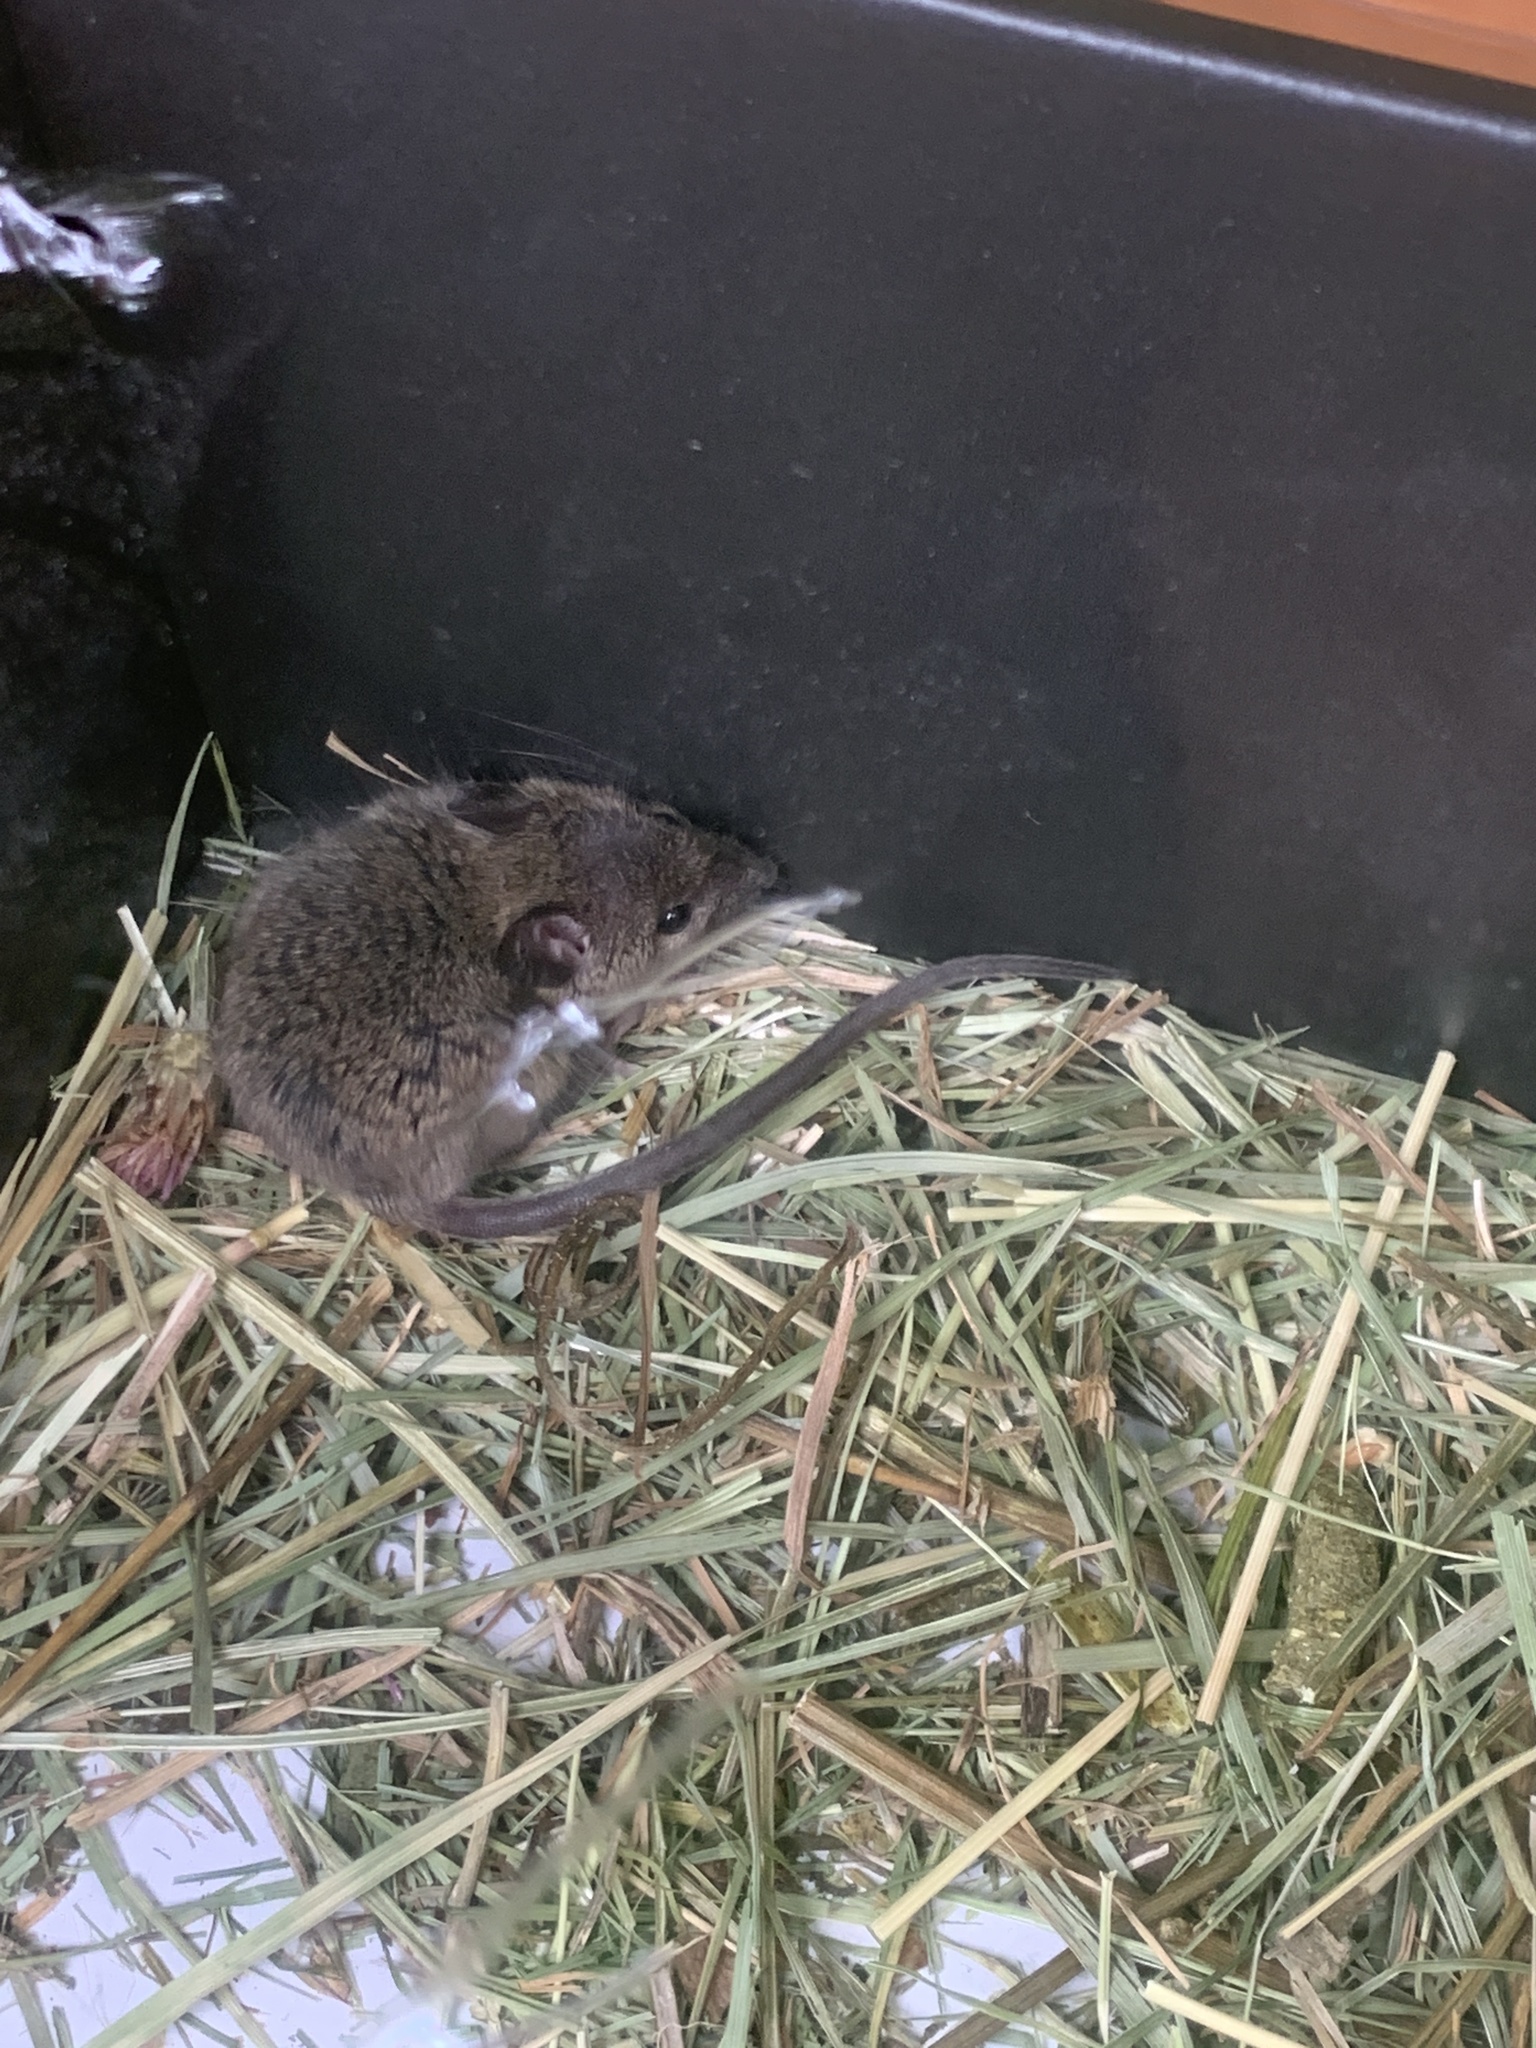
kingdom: Animalia
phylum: Chordata
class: Mammalia
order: Rodentia
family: Muridae
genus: Apodemus
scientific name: Apodemus sylvaticus
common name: Wood mouse
